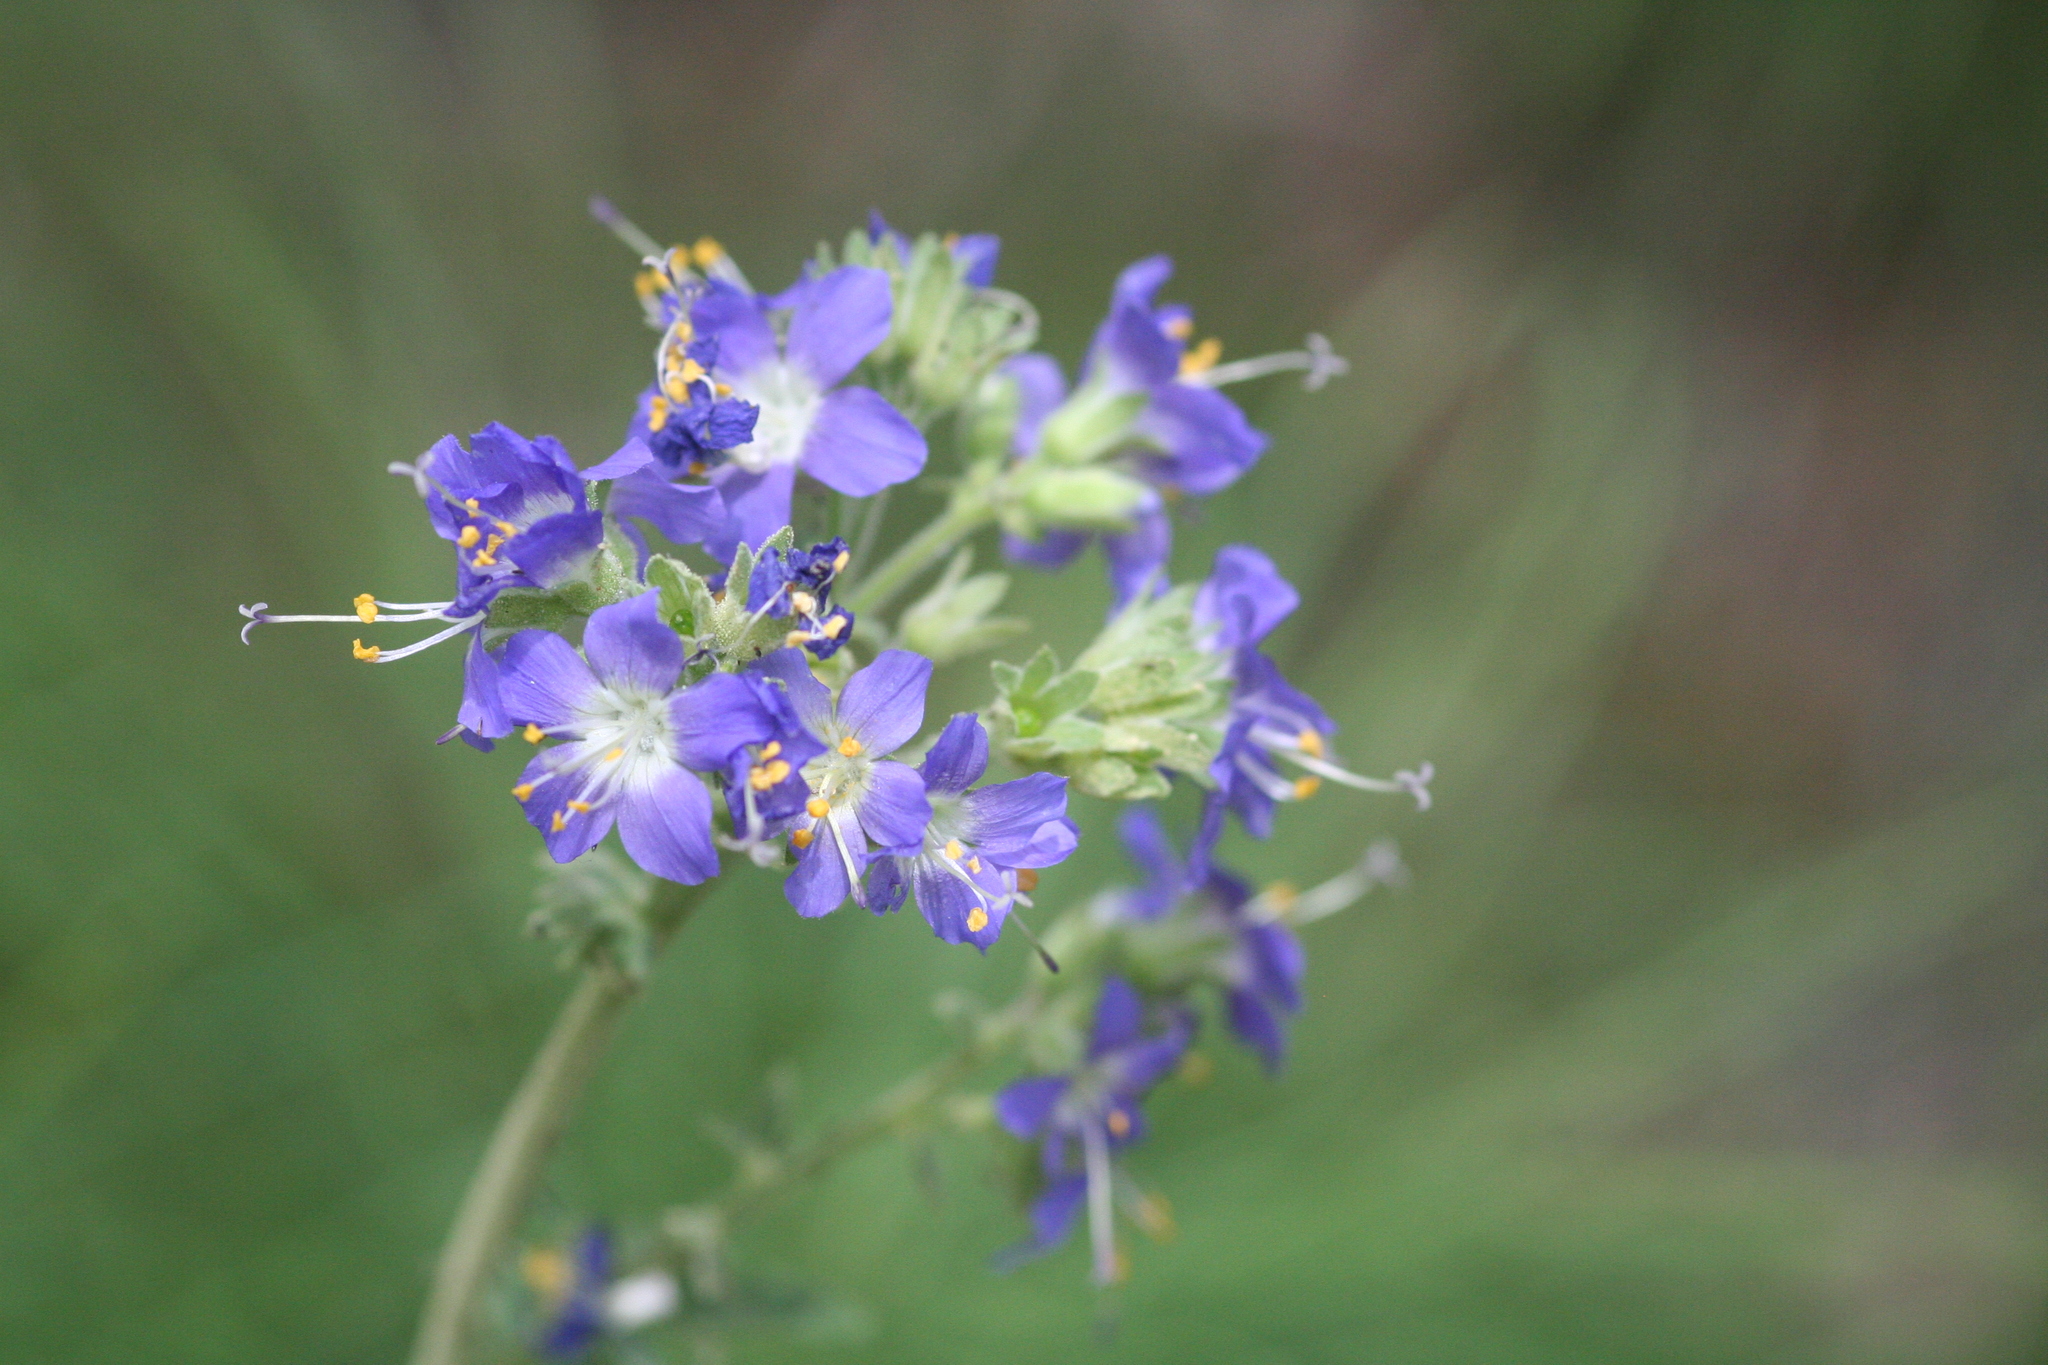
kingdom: Plantae
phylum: Tracheophyta
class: Magnoliopsida
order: Ericales
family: Polemoniaceae
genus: Polemonium
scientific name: Polemonium occidentale
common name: Western jacob's-ladder
